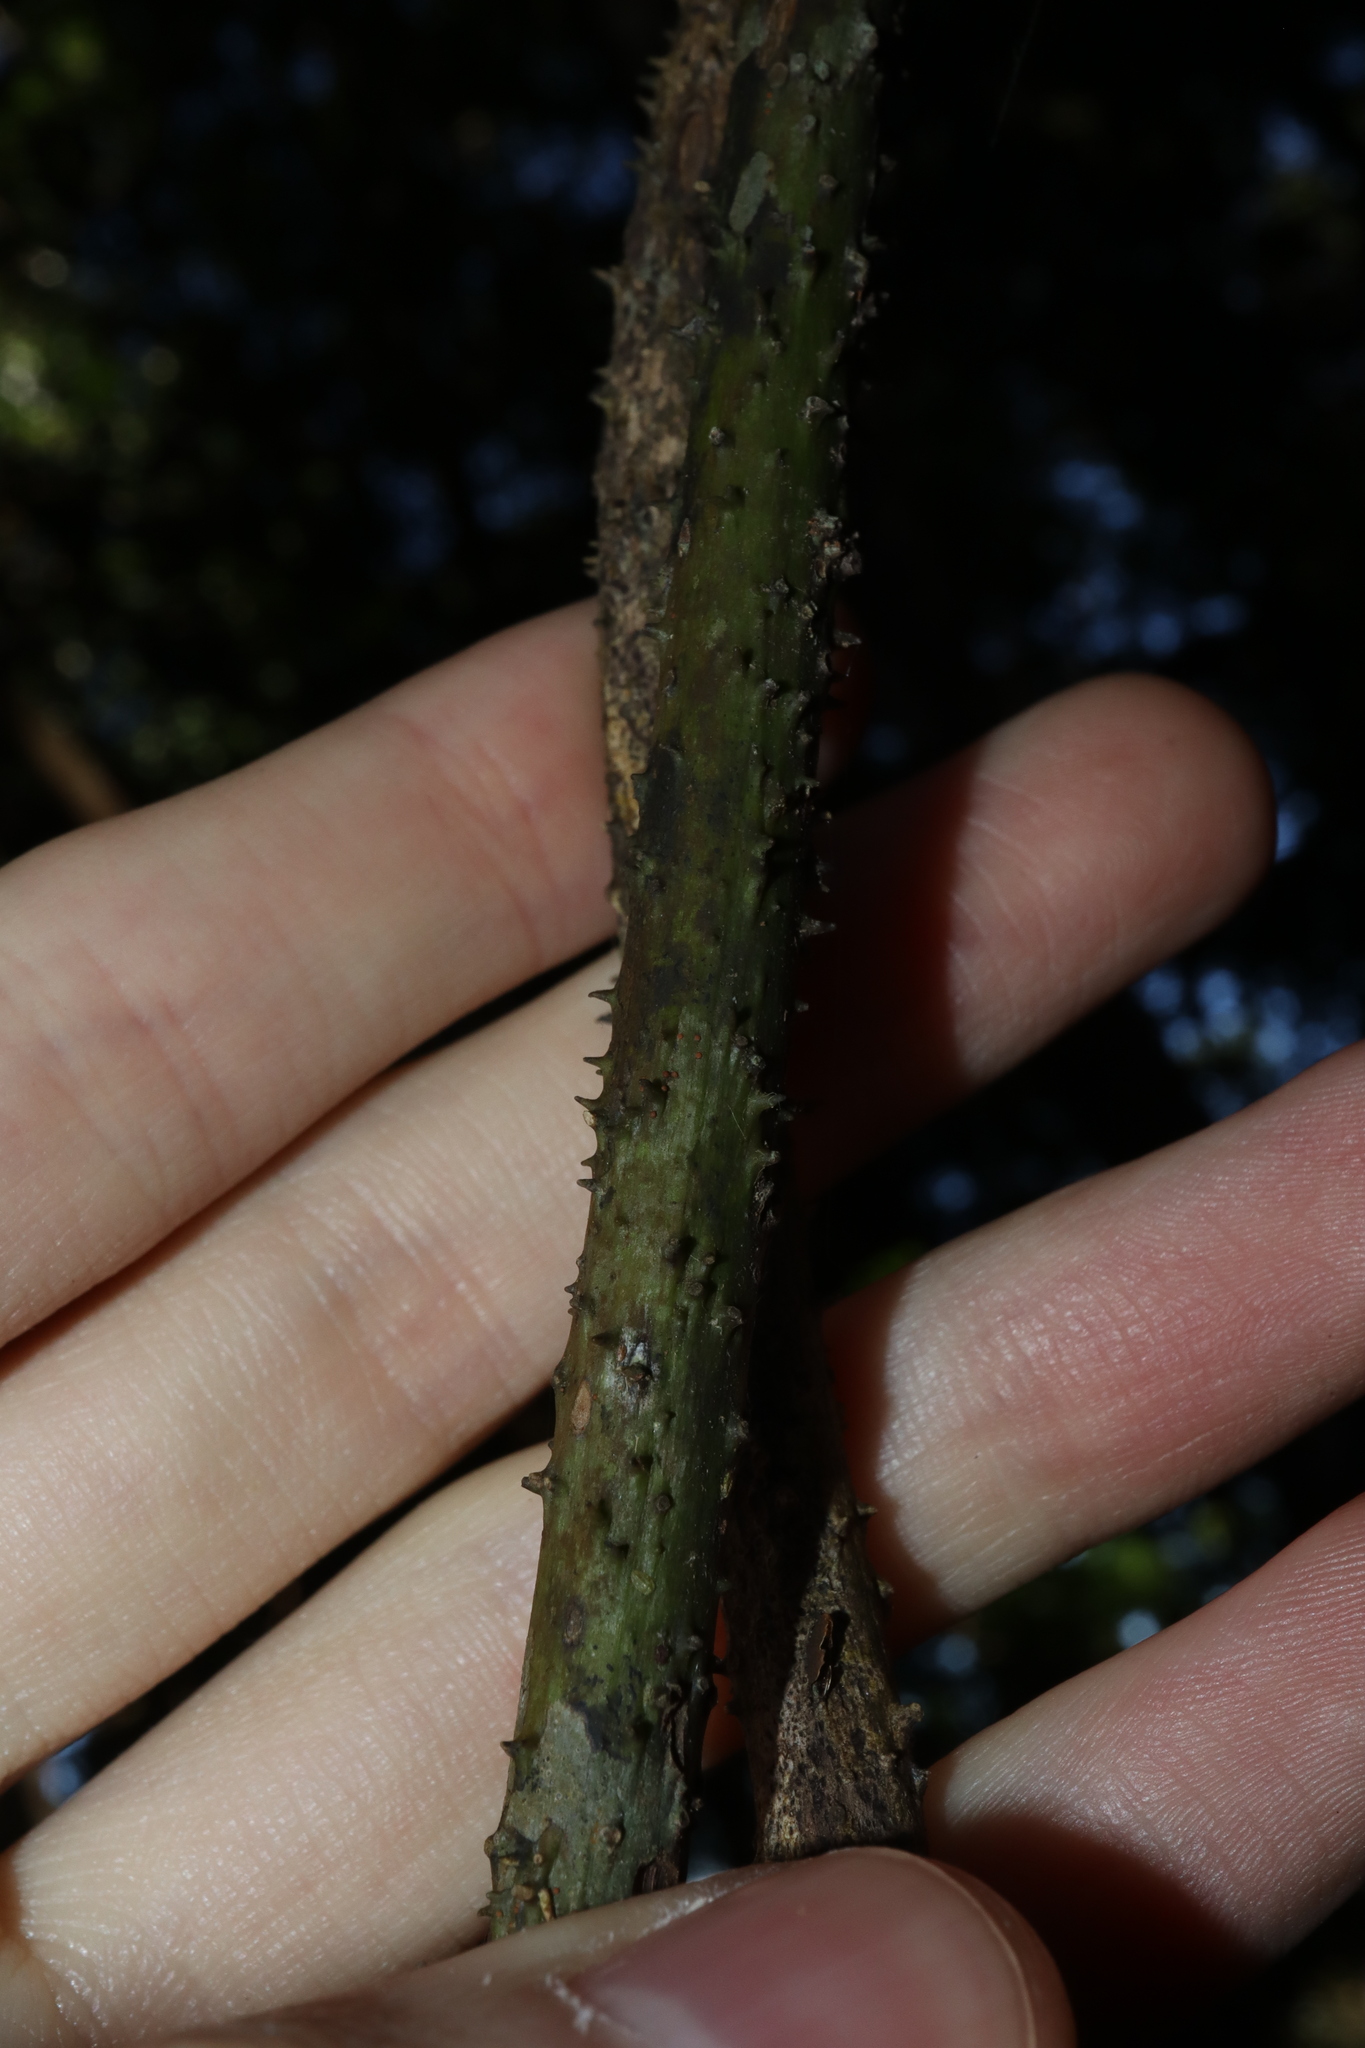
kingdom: Plantae
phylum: Tracheophyta
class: Liliopsida
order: Liliales
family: Ripogonaceae
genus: Ripogonum
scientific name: Ripogonum discolor
